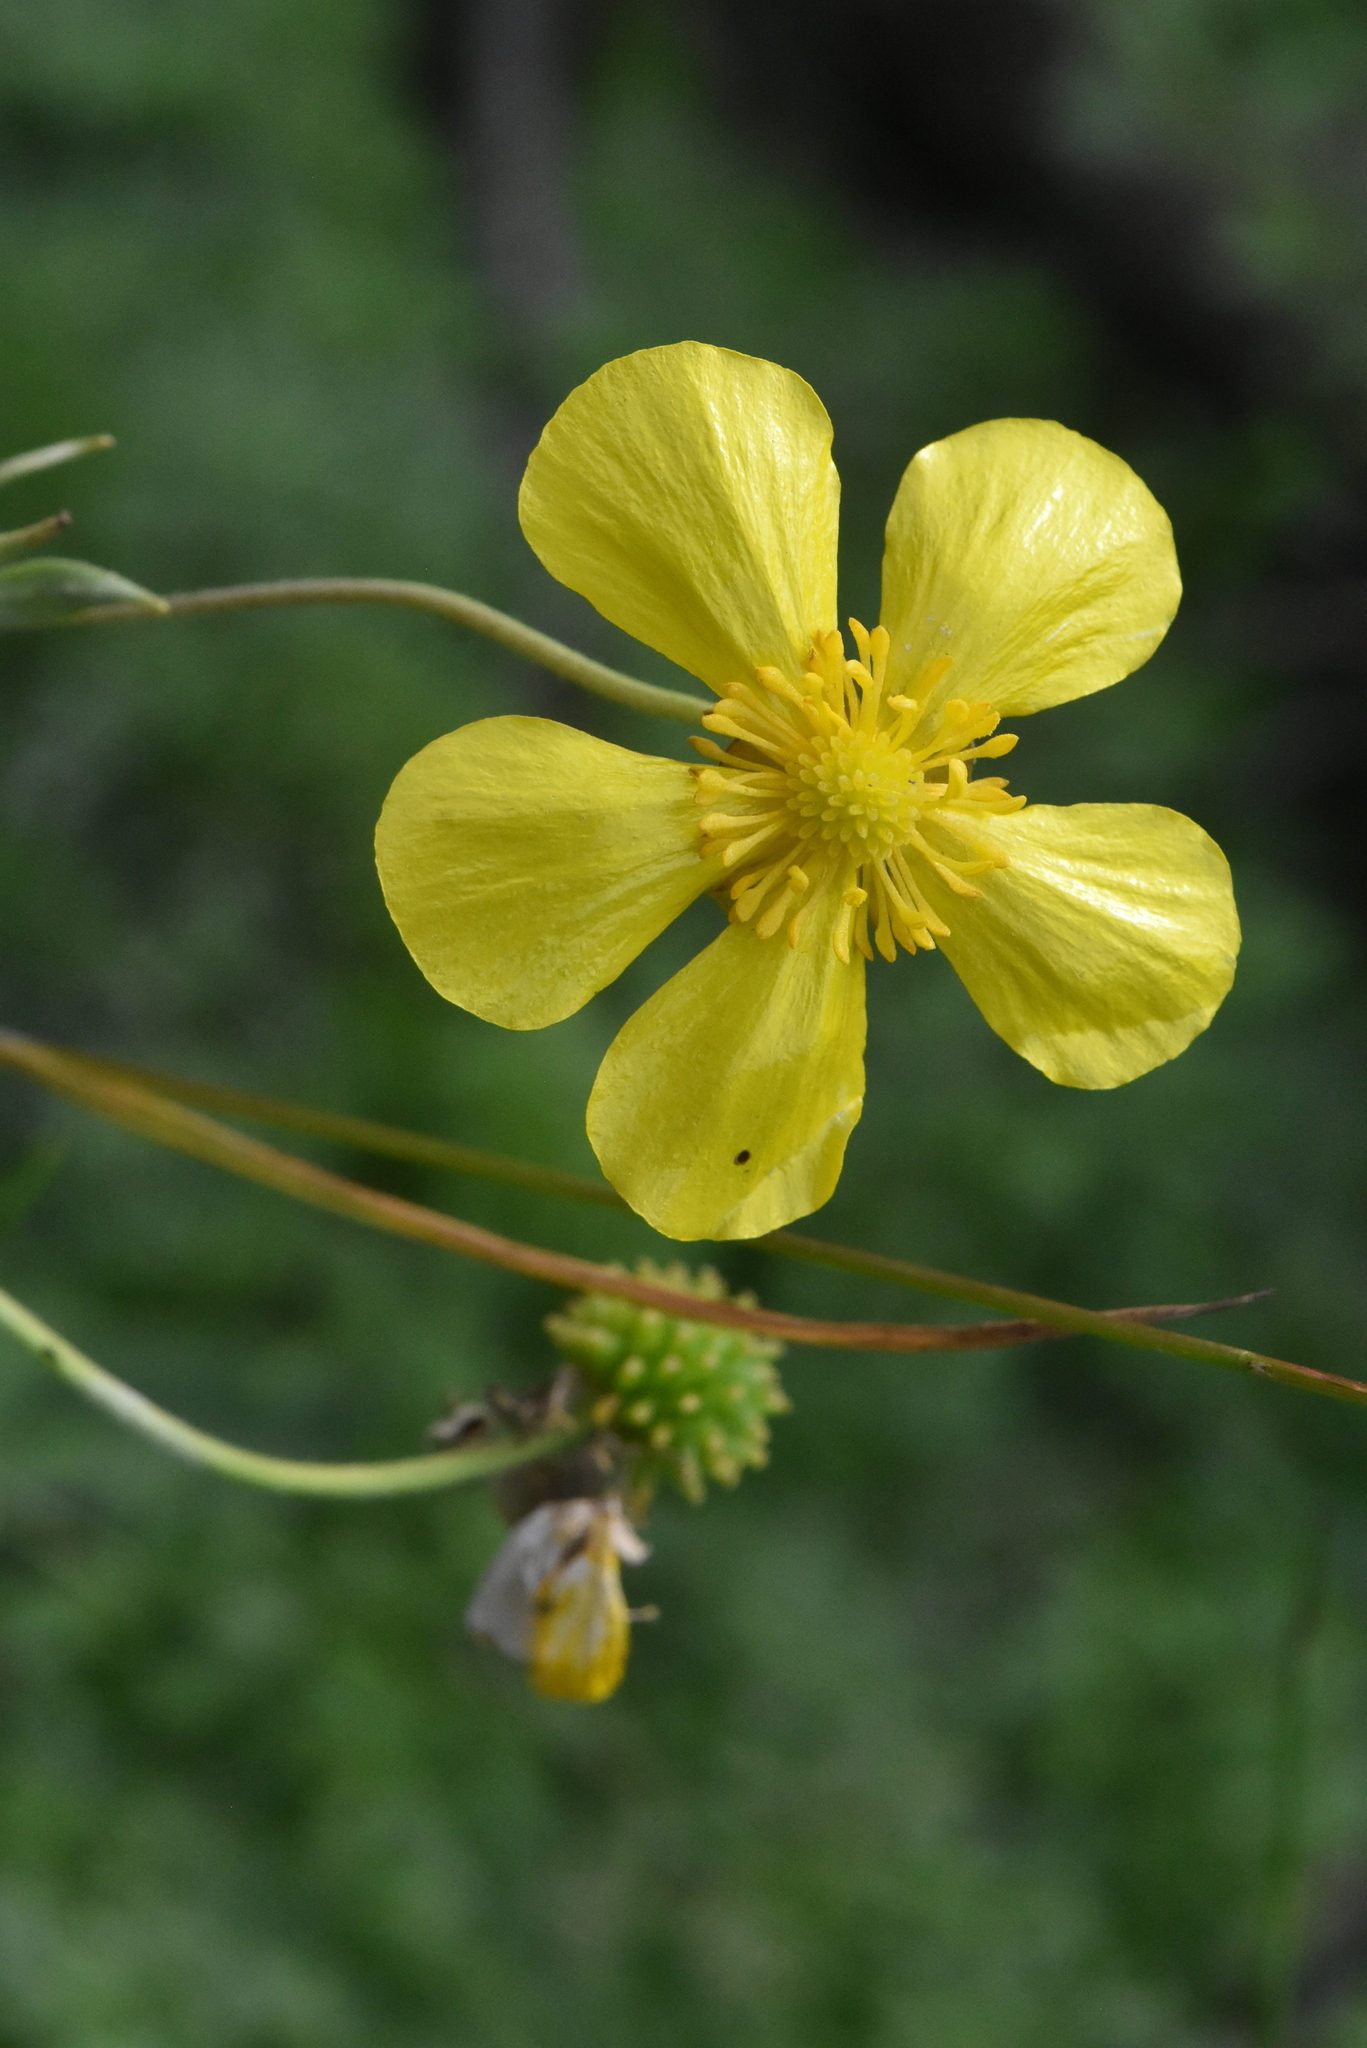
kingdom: Plantae
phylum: Tracheophyta
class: Magnoliopsida
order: Ranunculales
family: Ranunculaceae
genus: Ranunculus
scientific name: Ranunculus lingua
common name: Greater spearwort
